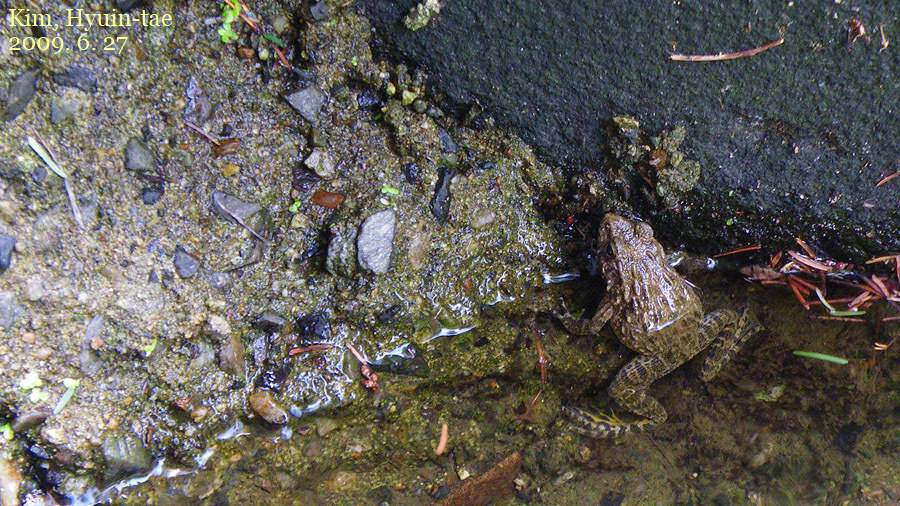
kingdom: Animalia
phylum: Chordata
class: Amphibia
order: Anura
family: Ranidae
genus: Glandirana
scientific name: Glandirana emeljanovi
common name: Northeast china rough-skinned frog
